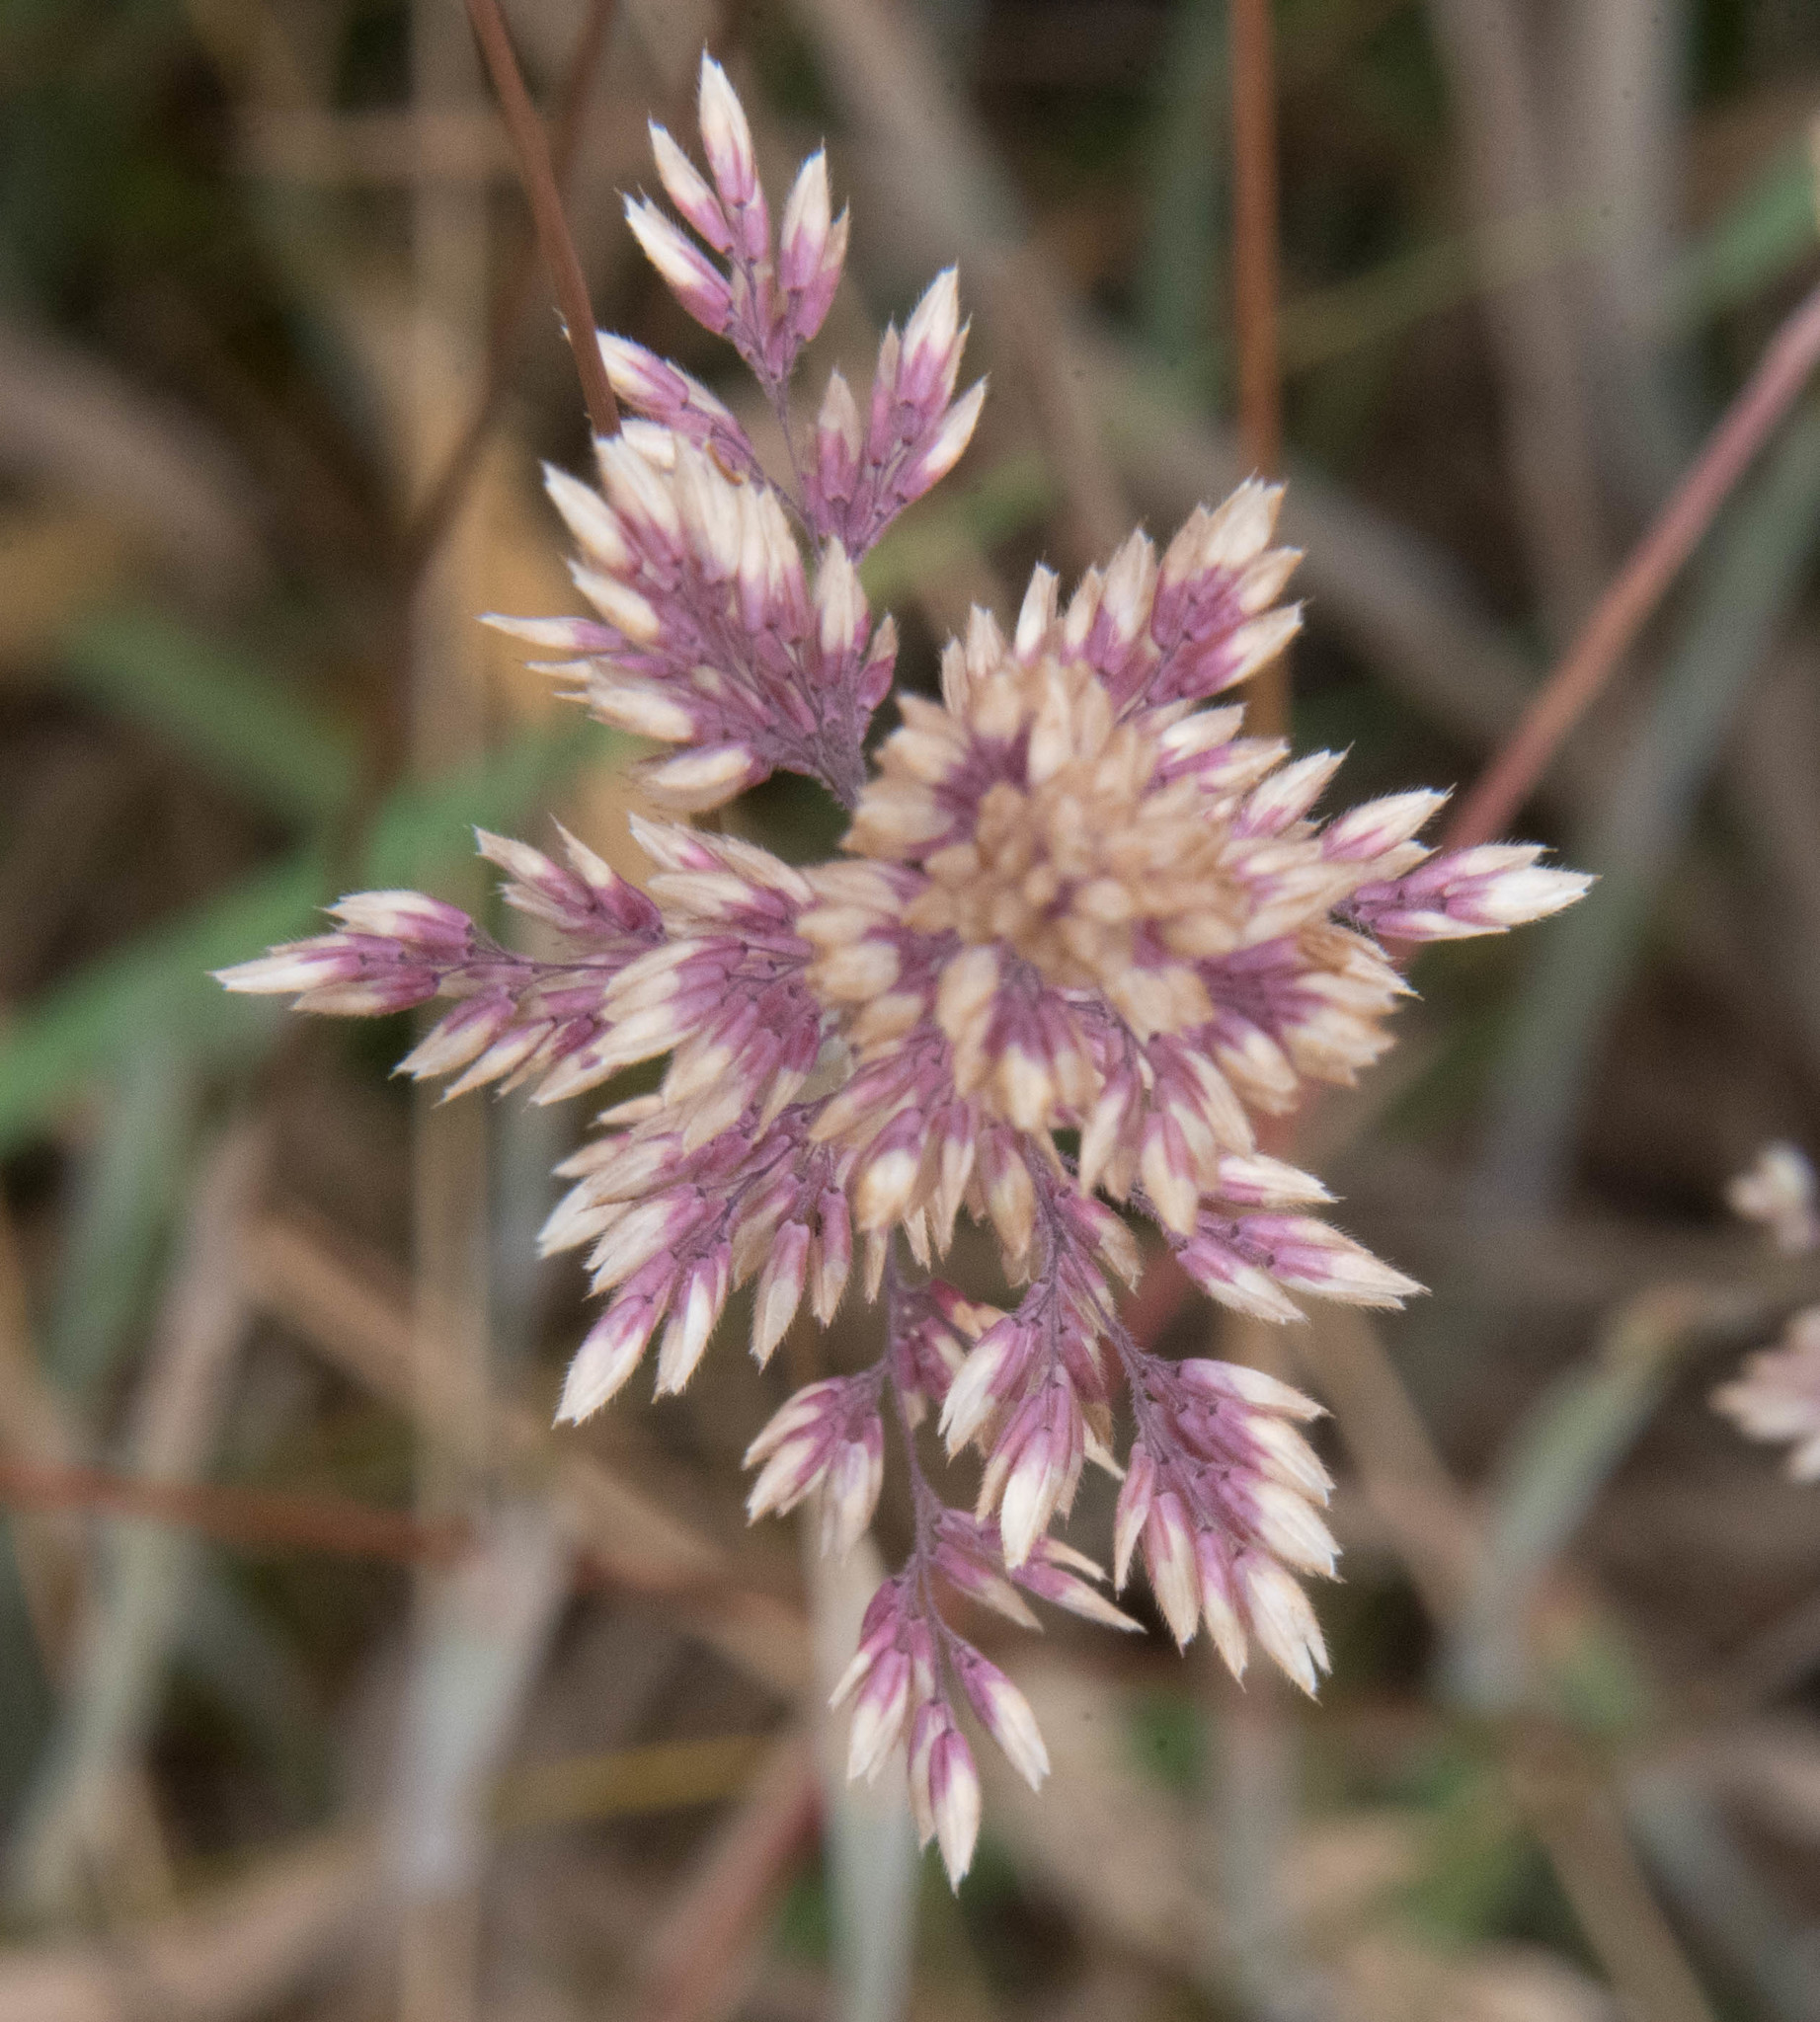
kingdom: Plantae
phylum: Tracheophyta
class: Liliopsida
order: Poales
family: Poaceae
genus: Holcus
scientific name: Holcus lanatus
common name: Yorkshire-fog
